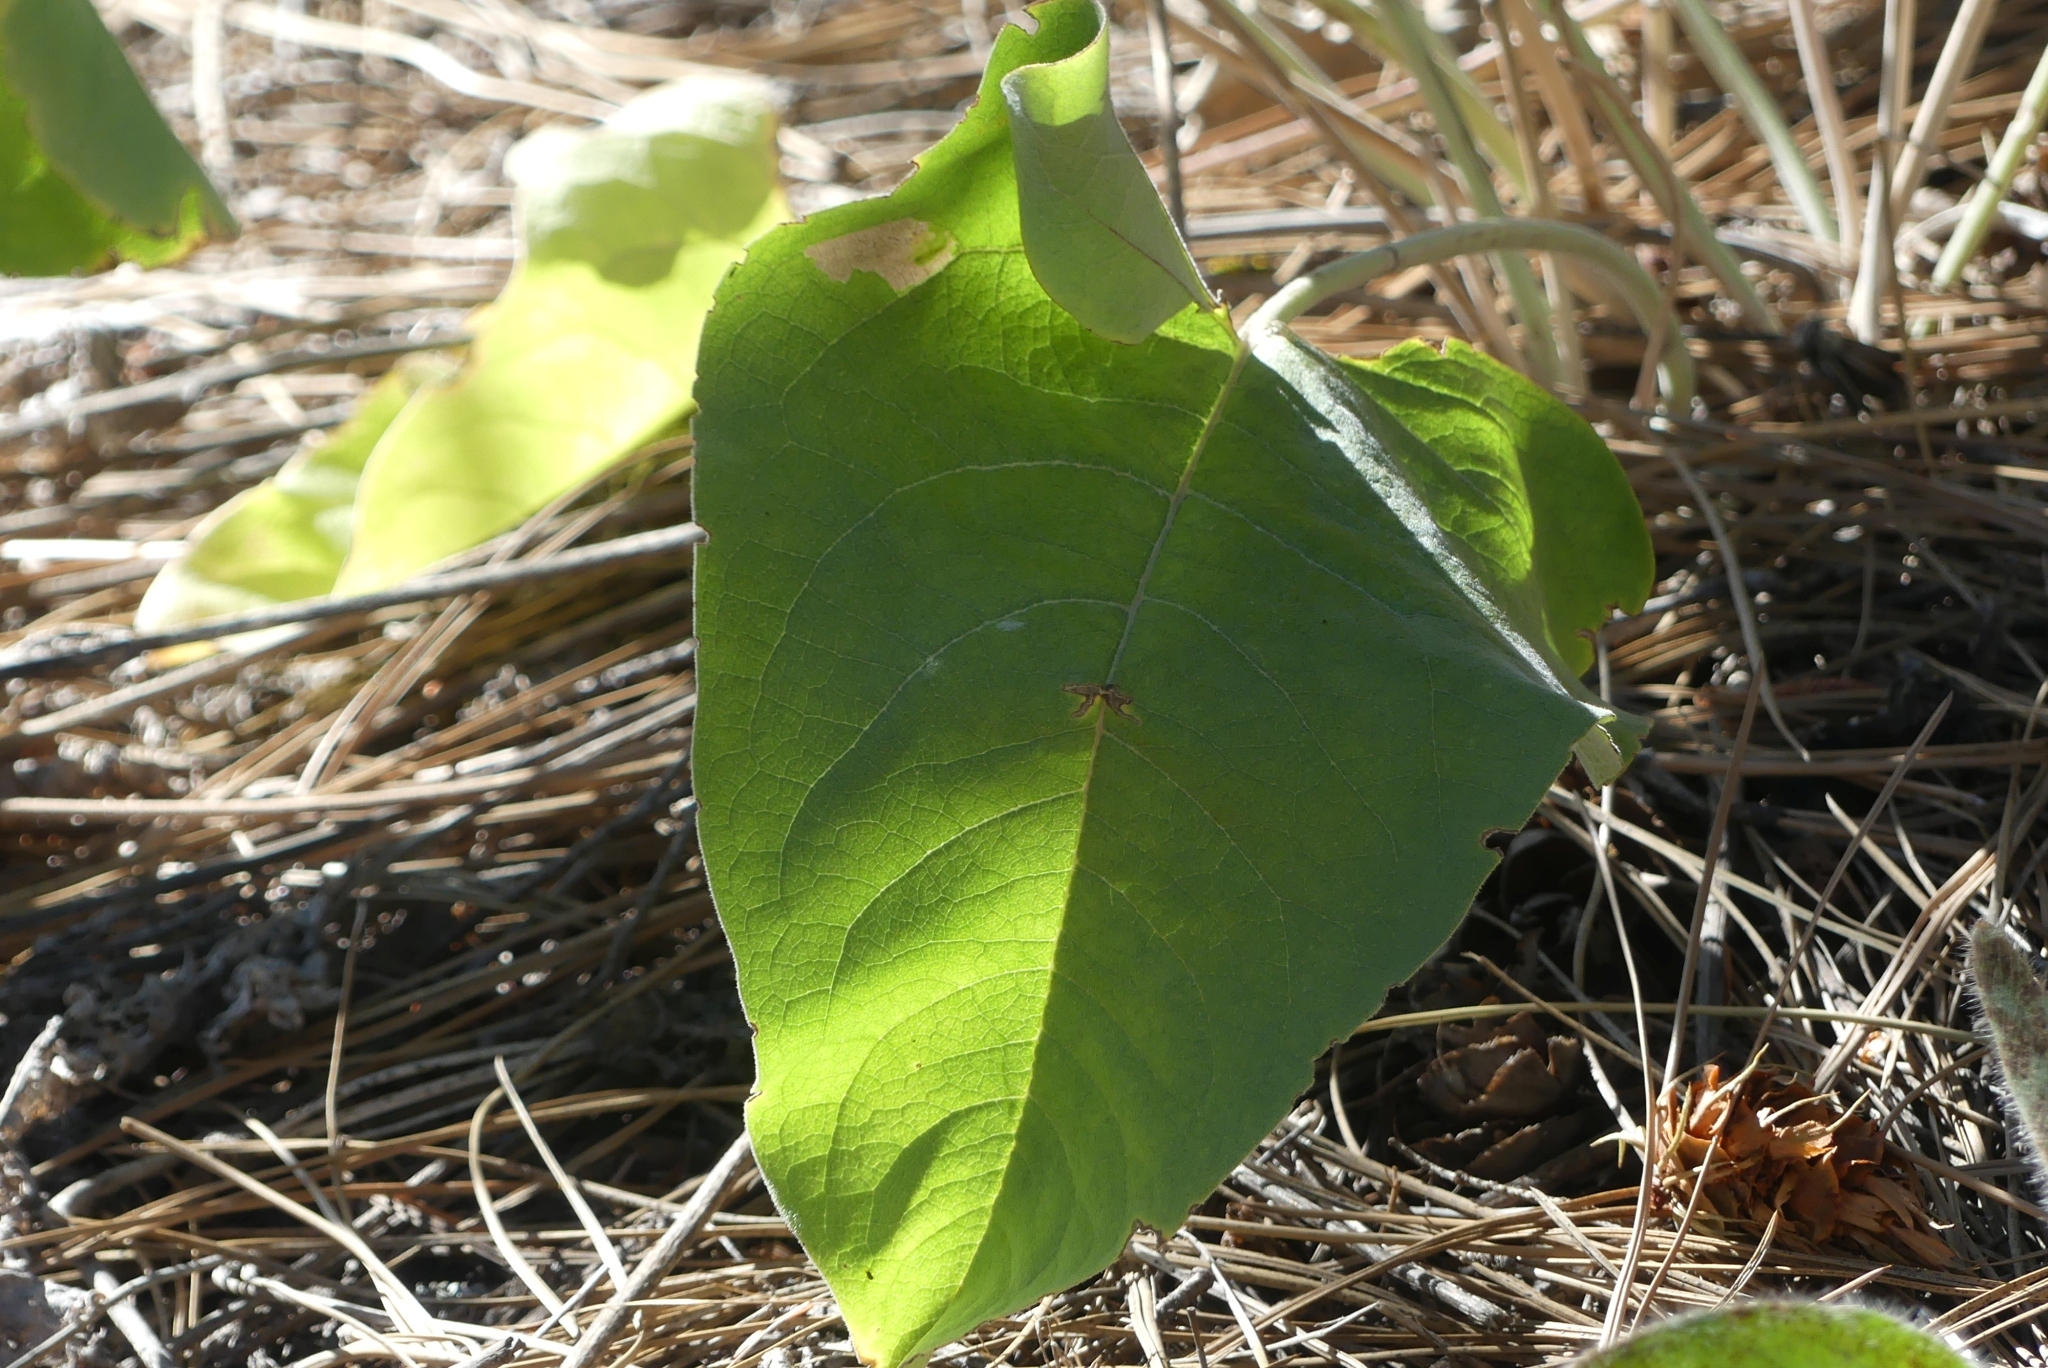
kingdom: Plantae
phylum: Tracheophyta
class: Magnoliopsida
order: Asterales
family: Asteraceae
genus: Wyethia
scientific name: Wyethia sagittata
